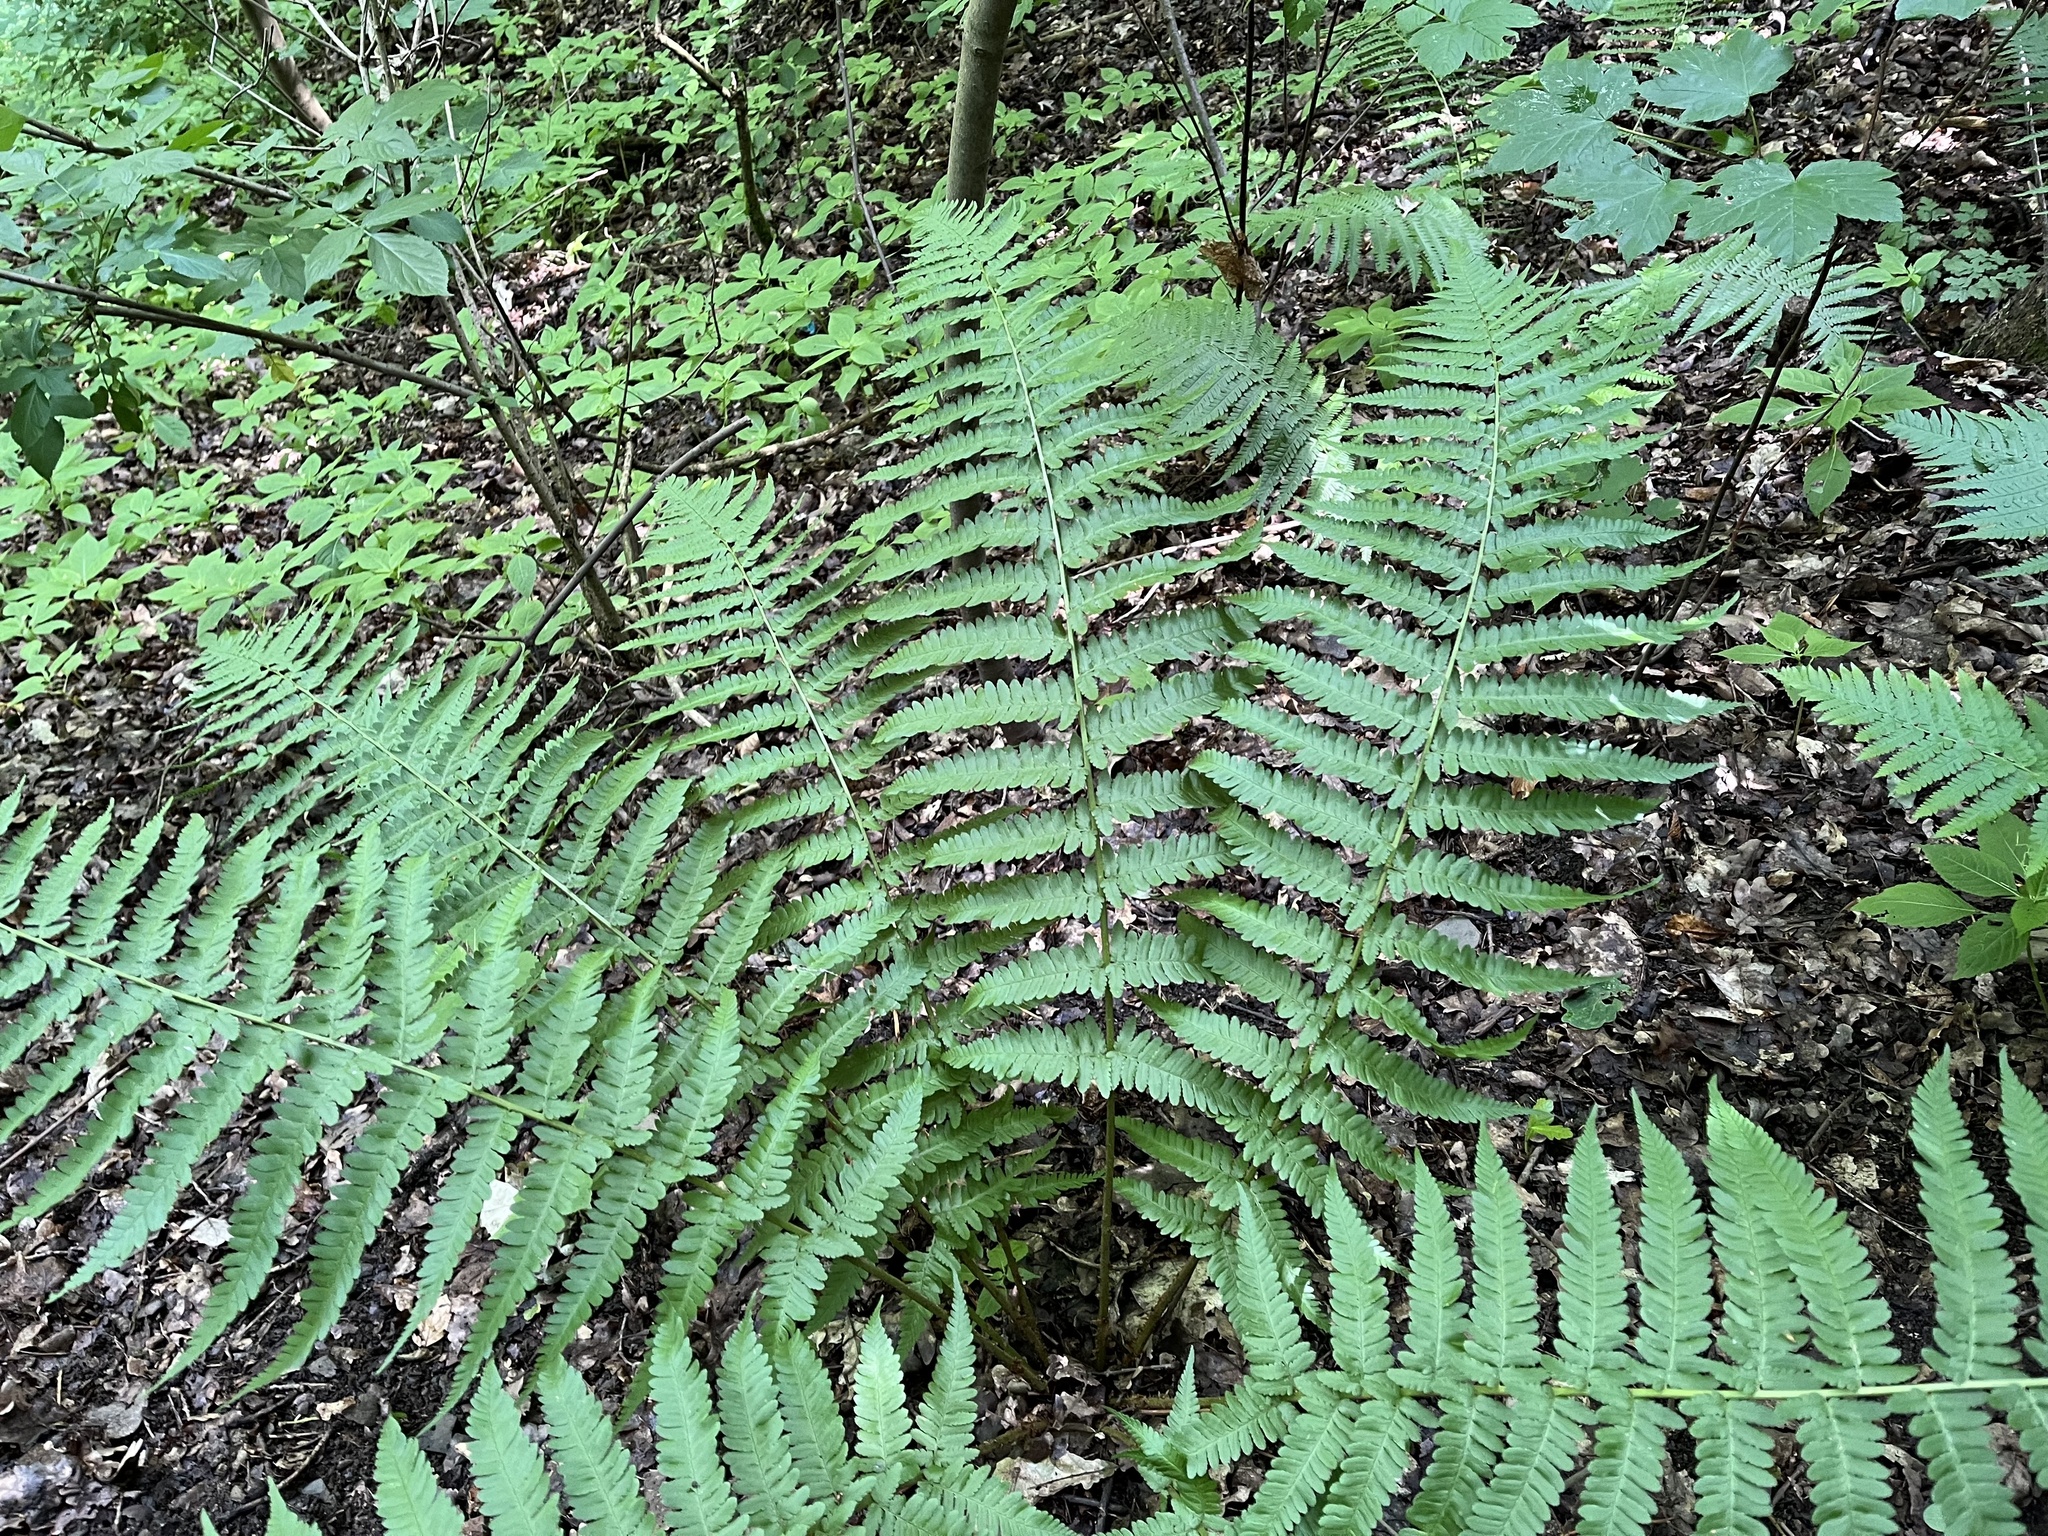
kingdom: Plantae
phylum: Tracheophyta
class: Polypodiopsida
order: Polypodiales
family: Dryopteridaceae
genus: Dryopteris
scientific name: Dryopteris filix-mas
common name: Male fern
